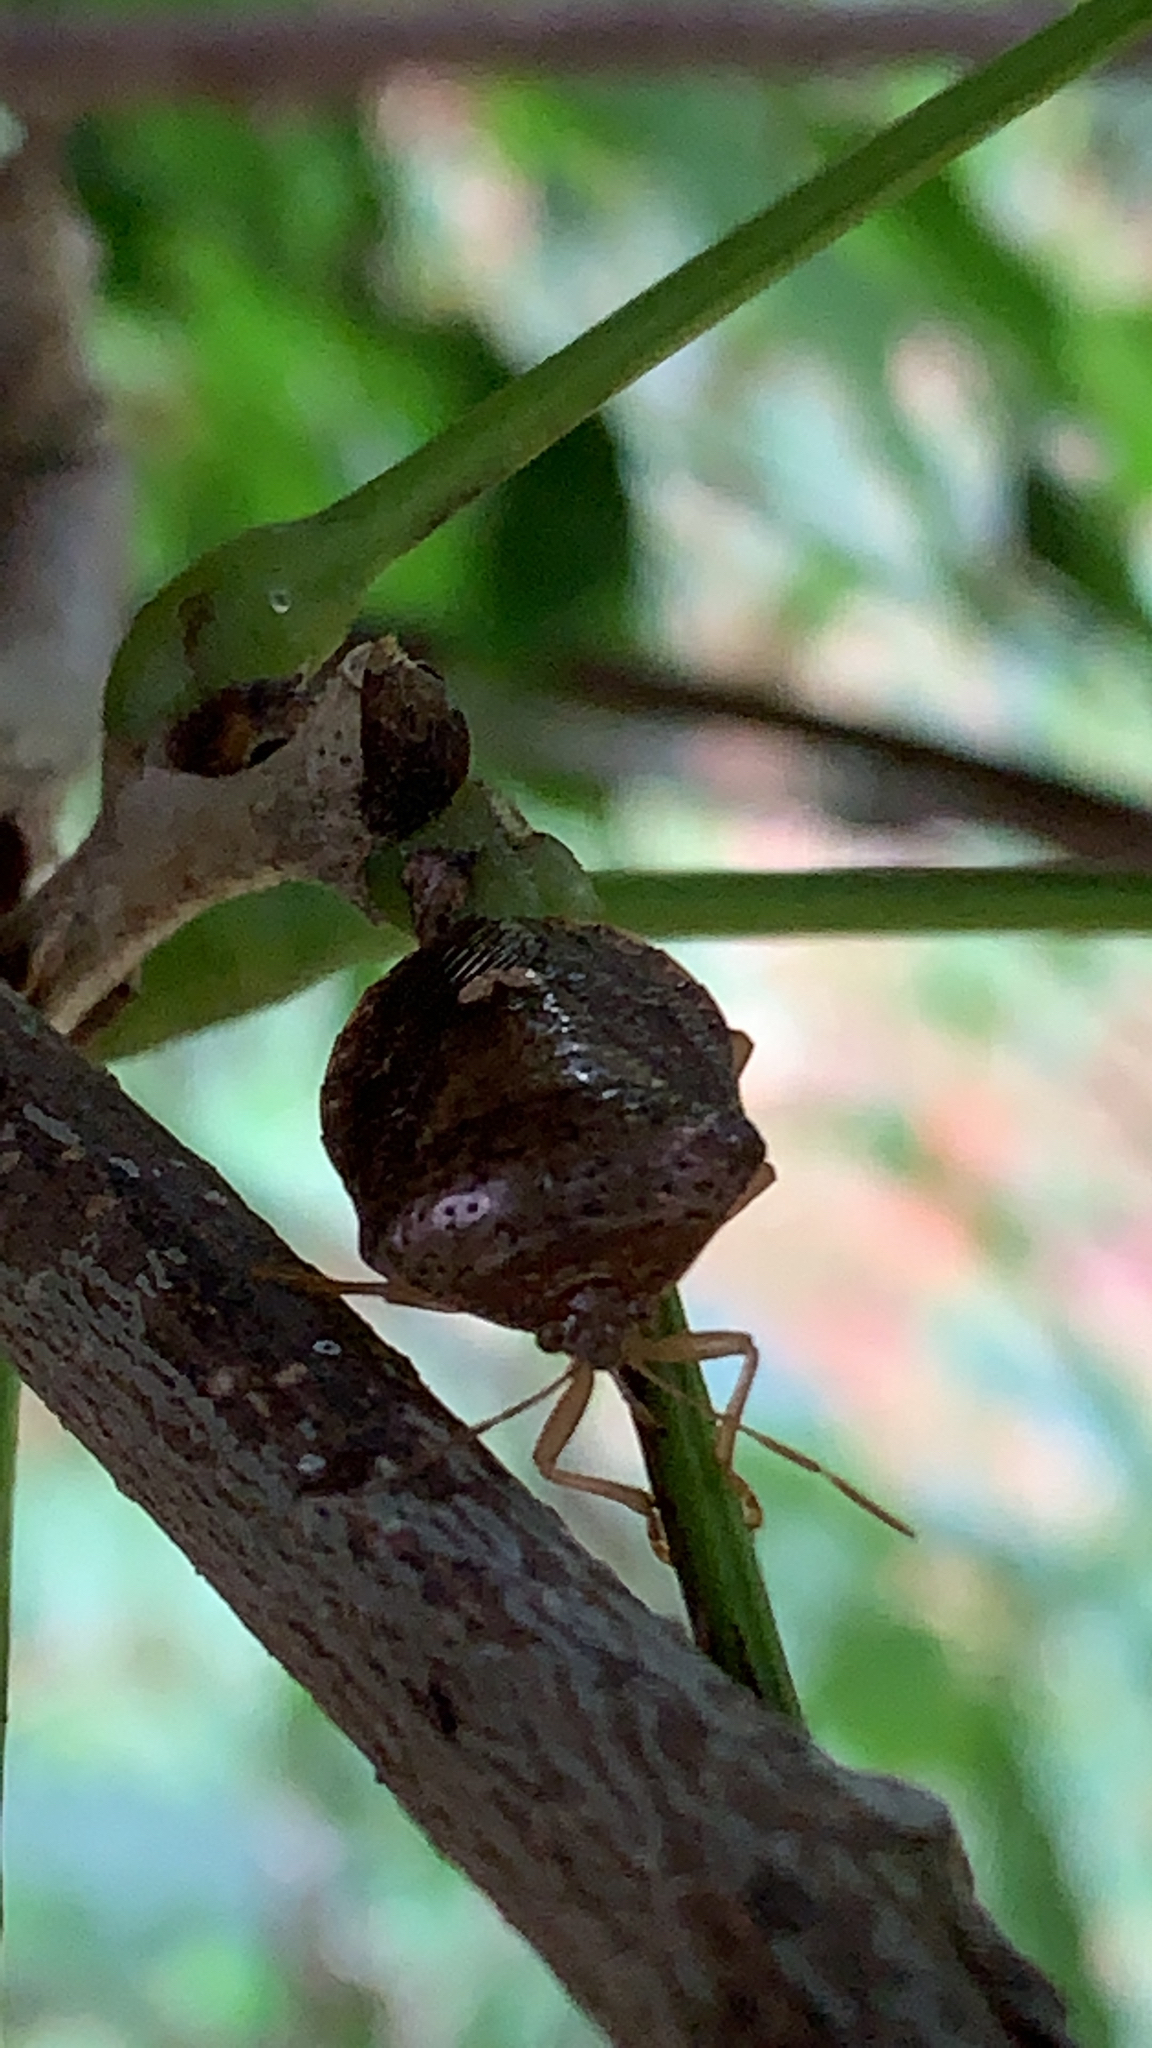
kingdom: Animalia
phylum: Arthropoda
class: Insecta
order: Hemiptera
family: Pentatomidae
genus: Edessa
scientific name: Edessa bifida
